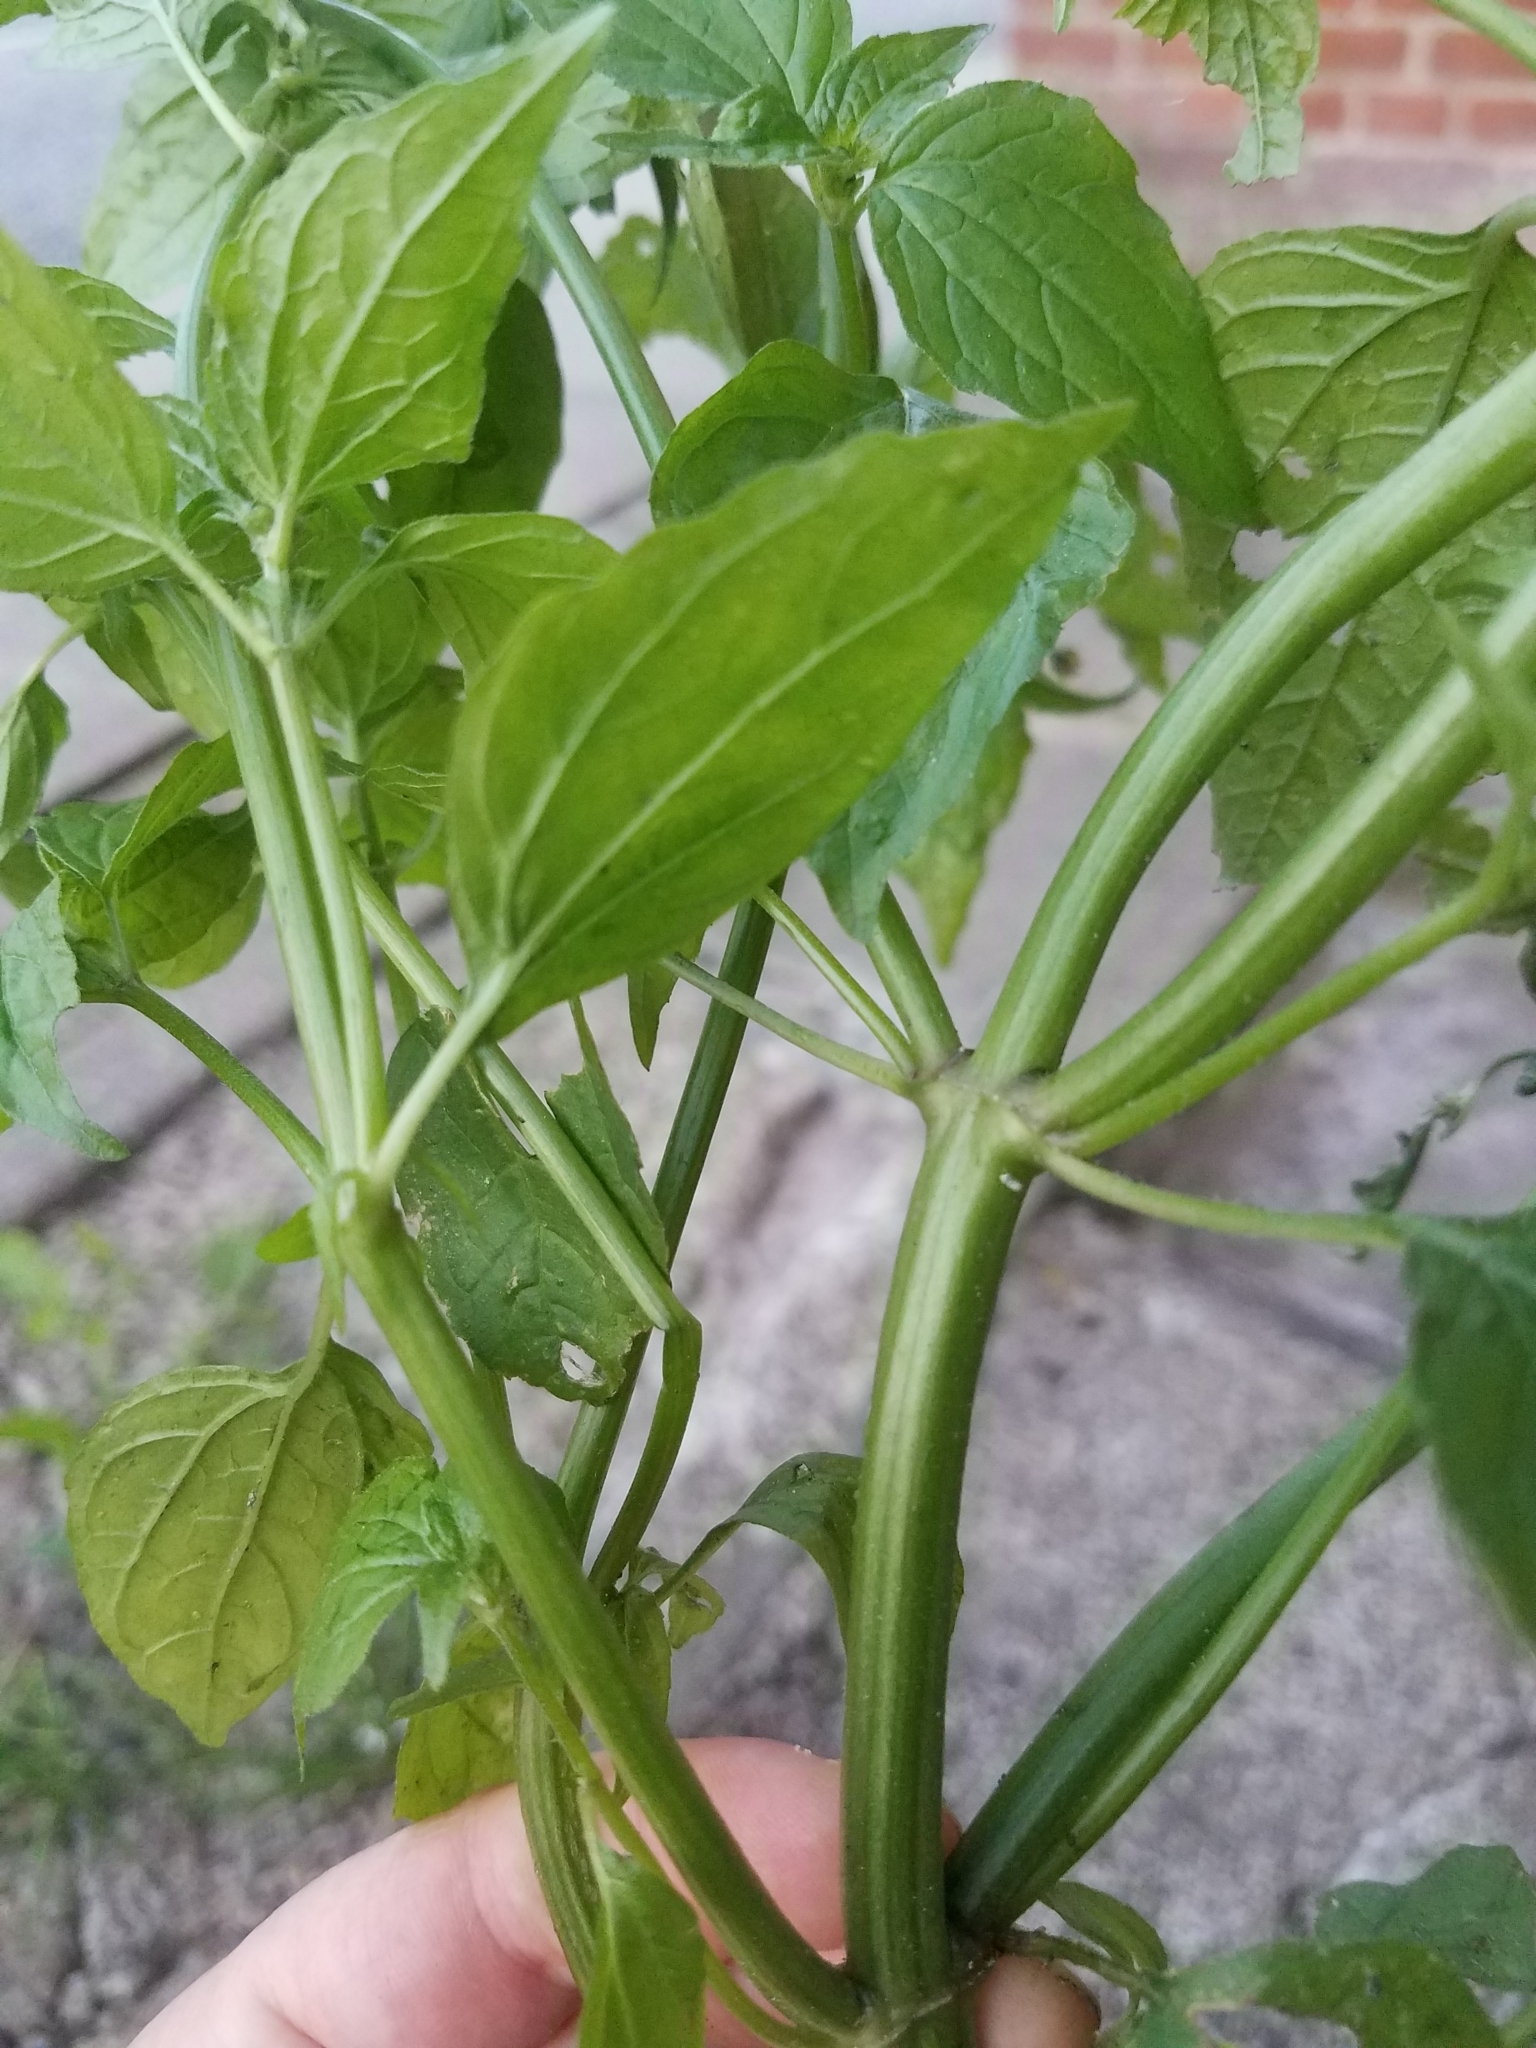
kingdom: Plantae
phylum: Tracheophyta
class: Magnoliopsida
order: Asterales
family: Asteraceae
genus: Galinsoga
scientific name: Galinsoga parviflora
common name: Gallant soldier
